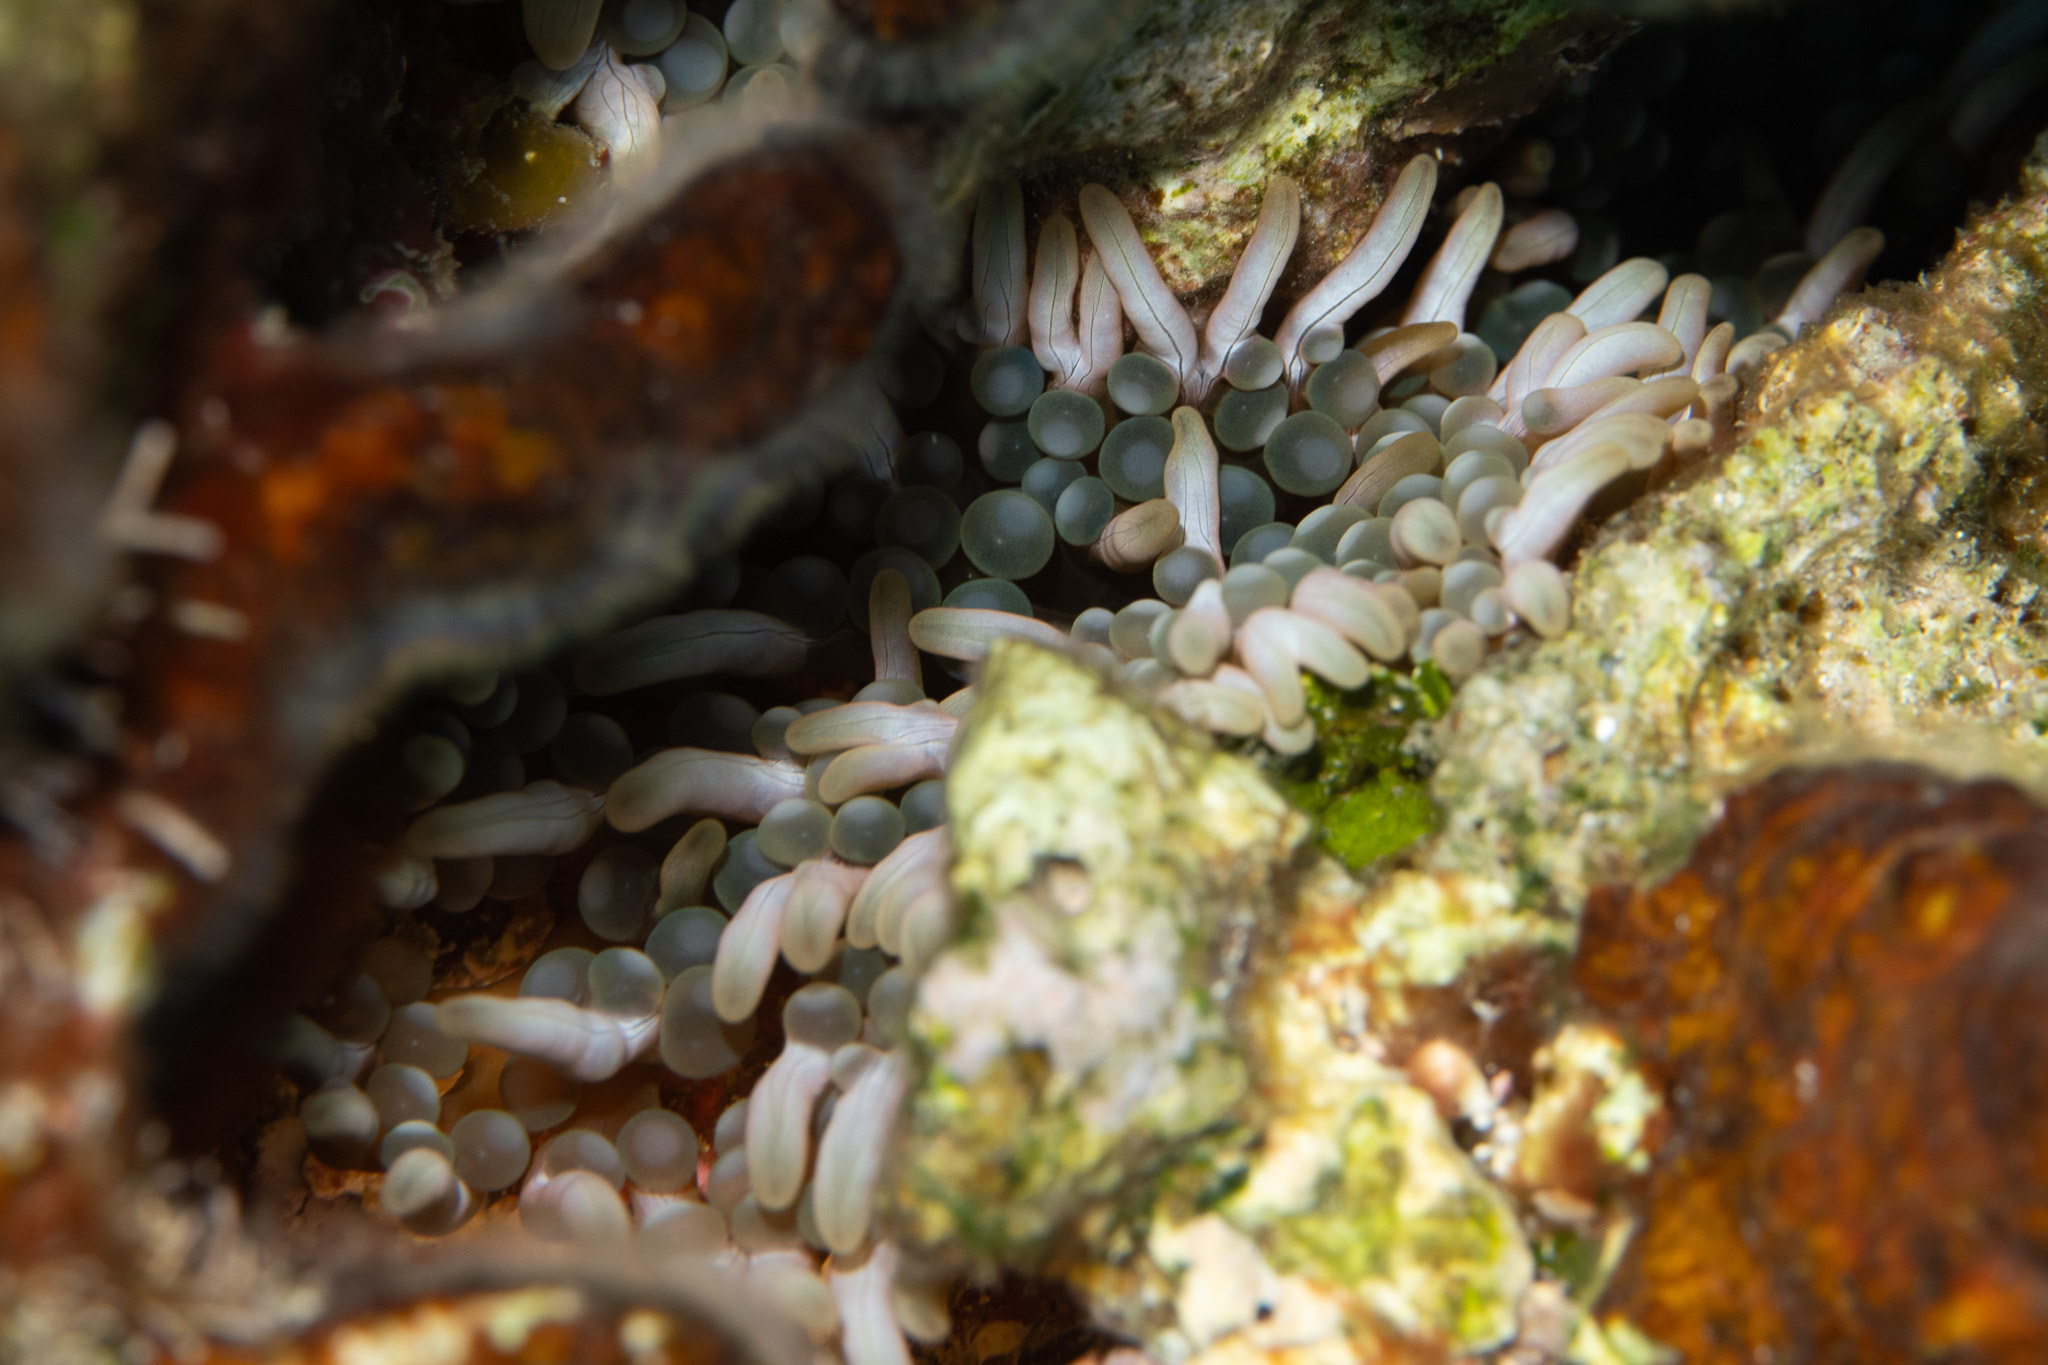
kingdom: Animalia
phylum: Cnidaria
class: Anthozoa
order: Actiniaria
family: Aliciidae
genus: Lebrunia
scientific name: Lebrunia neglecta
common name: Branching anemone
